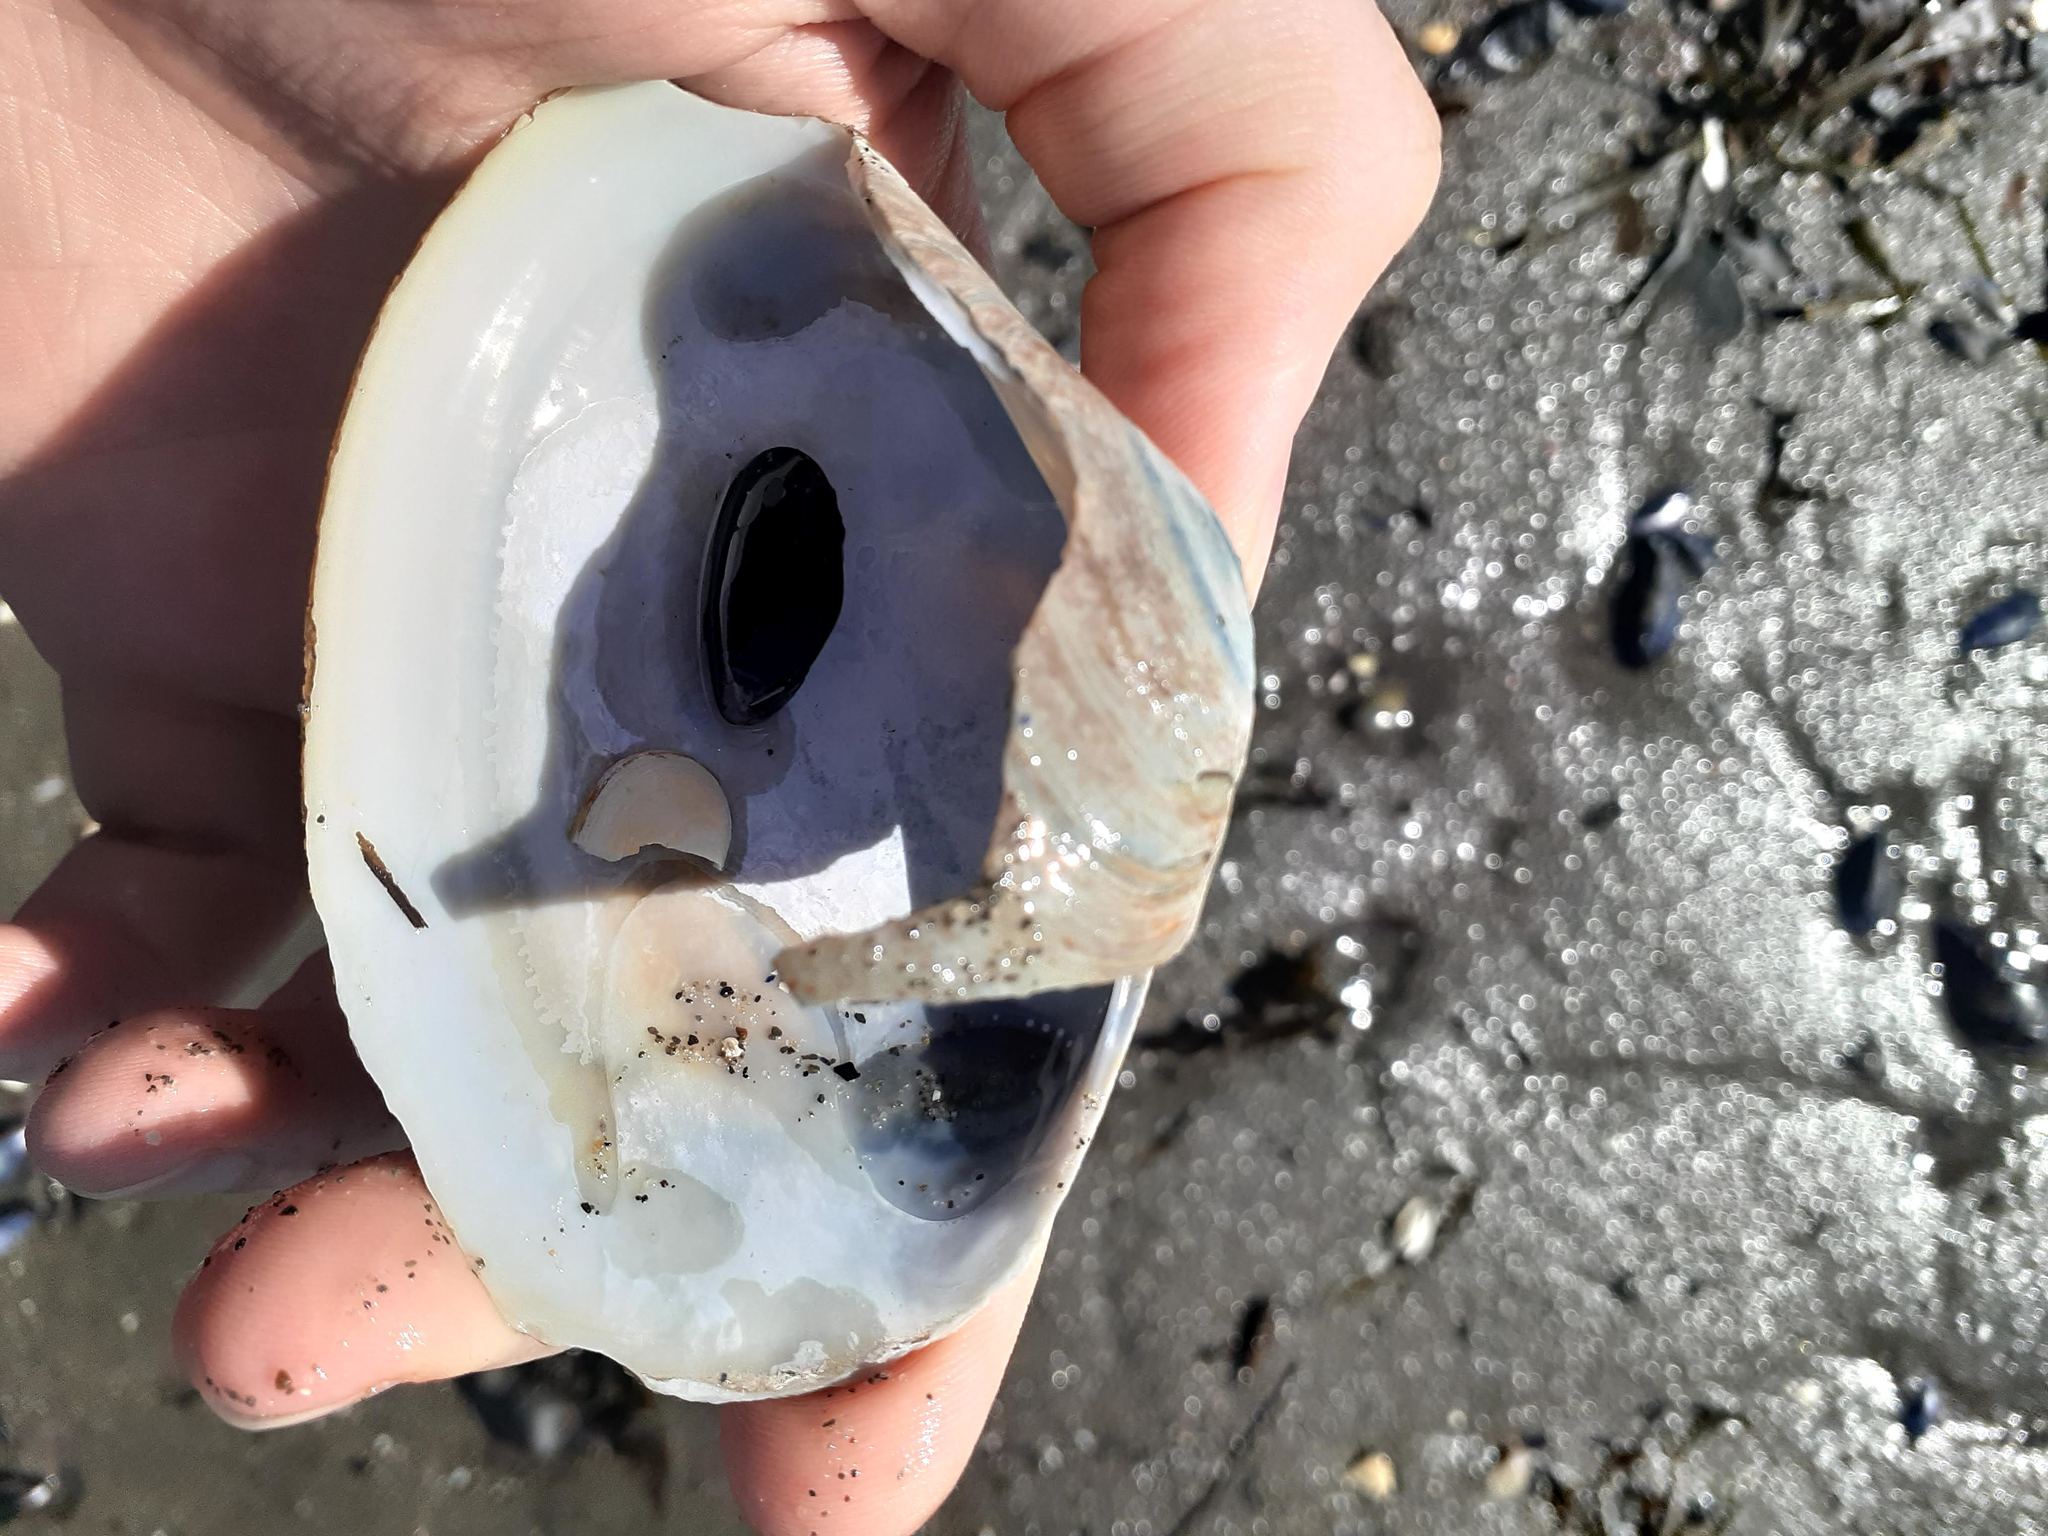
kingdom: Animalia
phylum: Mollusca
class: Bivalvia
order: Venerida
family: Mactridae
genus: Mactromeris
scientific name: Mactromeris polynyma
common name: Arctic surf clam
